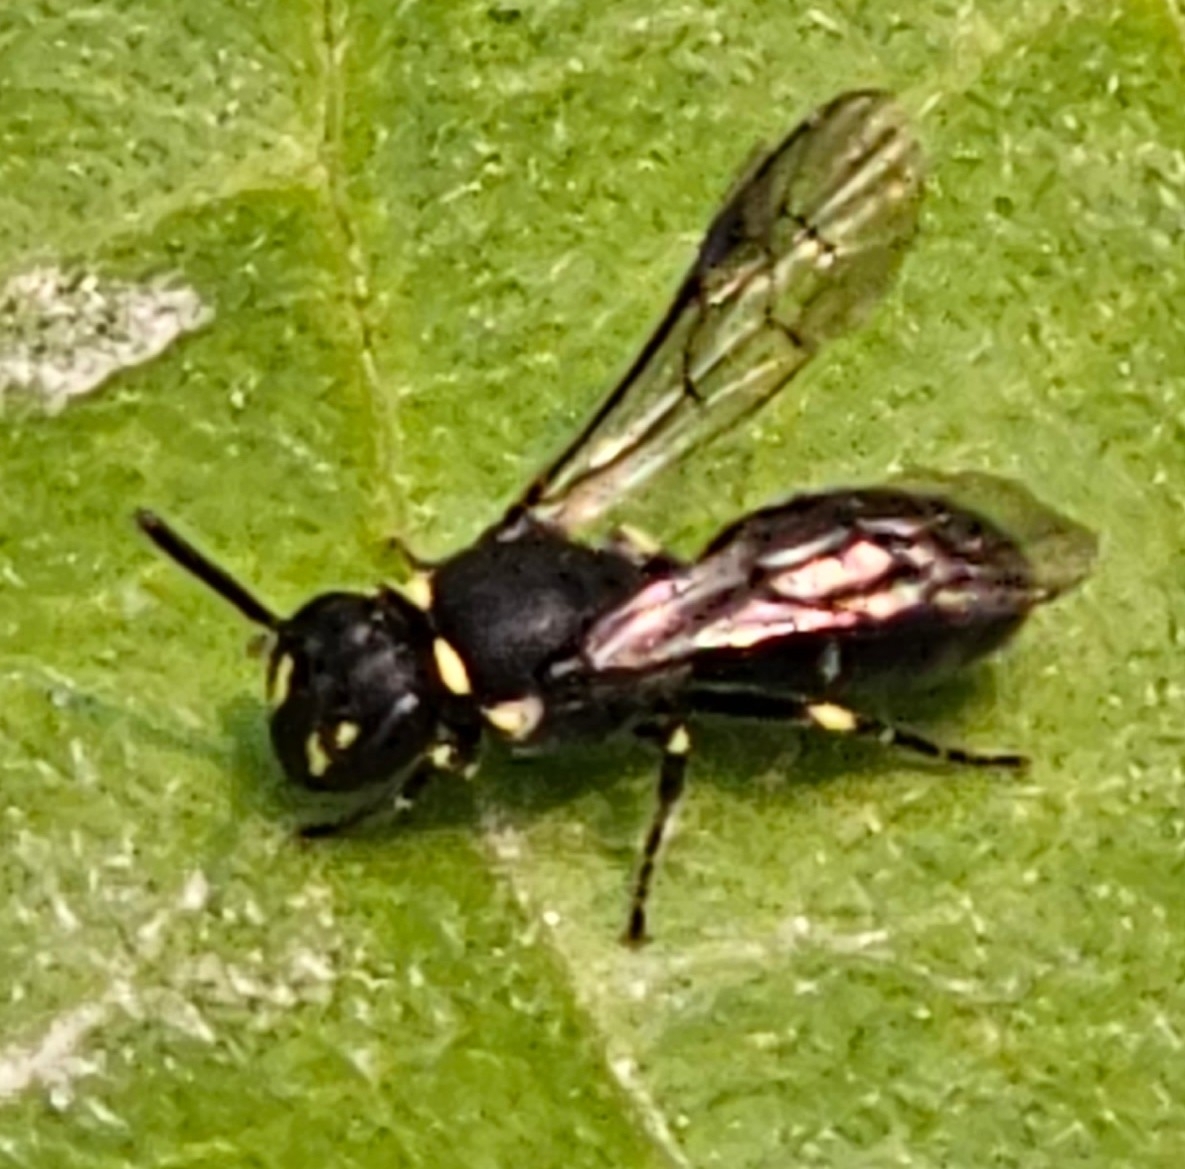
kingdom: Animalia
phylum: Arthropoda
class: Insecta
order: Hymenoptera
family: Colletidae
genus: Hylaeus
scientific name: Hylaeus modestus
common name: Yellow-faced bee
